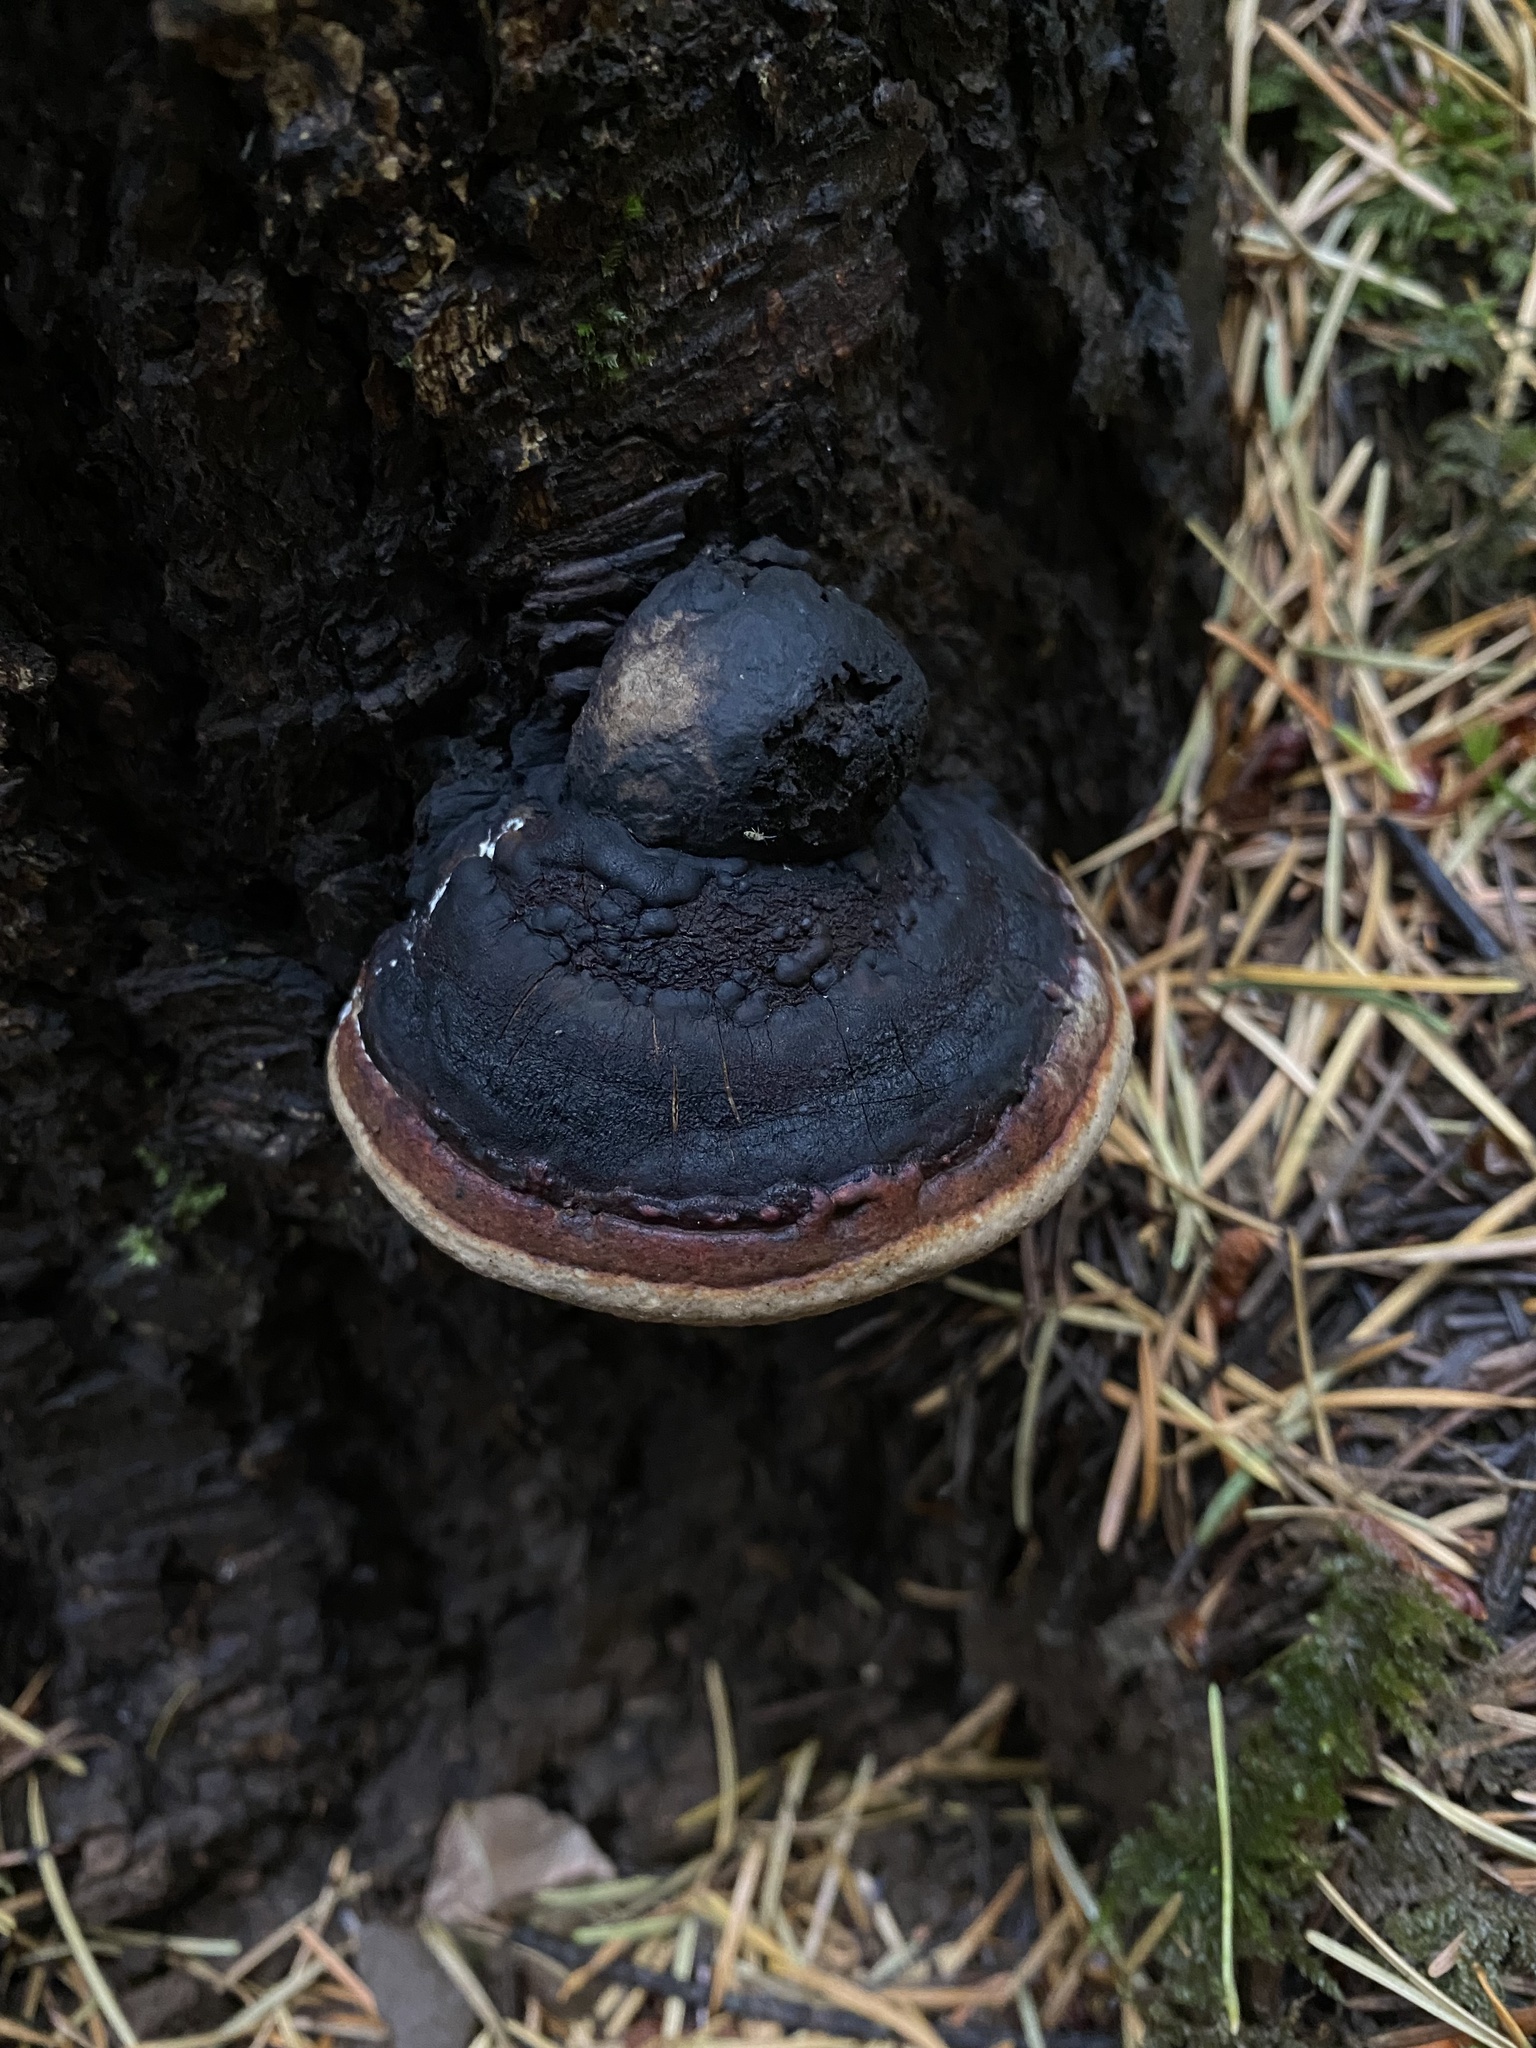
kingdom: Fungi
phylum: Basidiomycota
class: Agaricomycetes
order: Polyporales
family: Fomitopsidaceae
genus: Fomitopsis
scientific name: Fomitopsis mounceae
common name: Northern red belt
